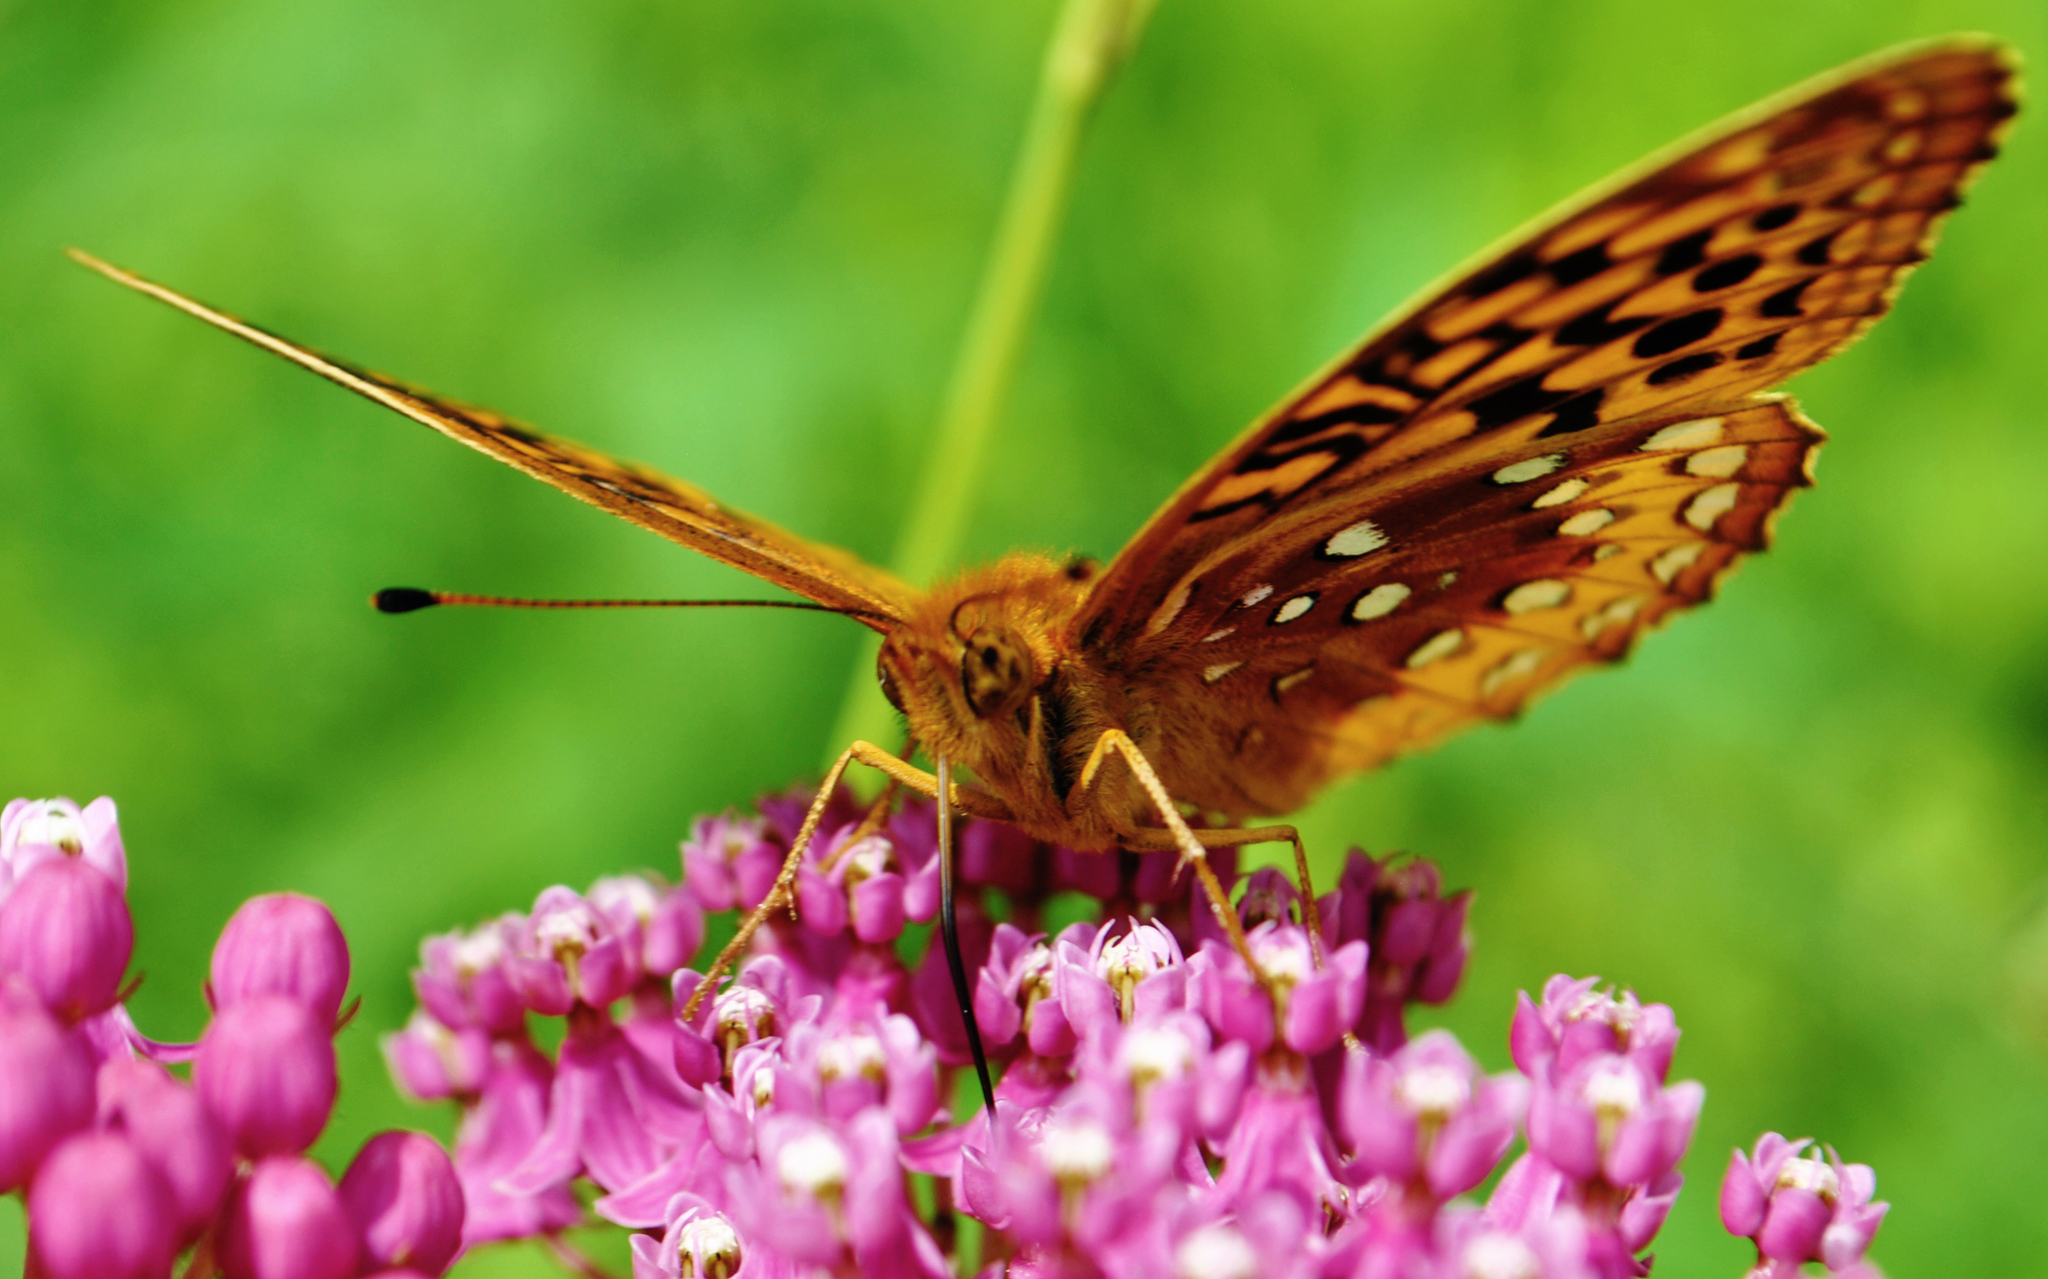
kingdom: Animalia
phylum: Arthropoda
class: Insecta
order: Lepidoptera
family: Nymphalidae
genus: Speyeria
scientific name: Speyeria cybele
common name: Great spangled fritillary
